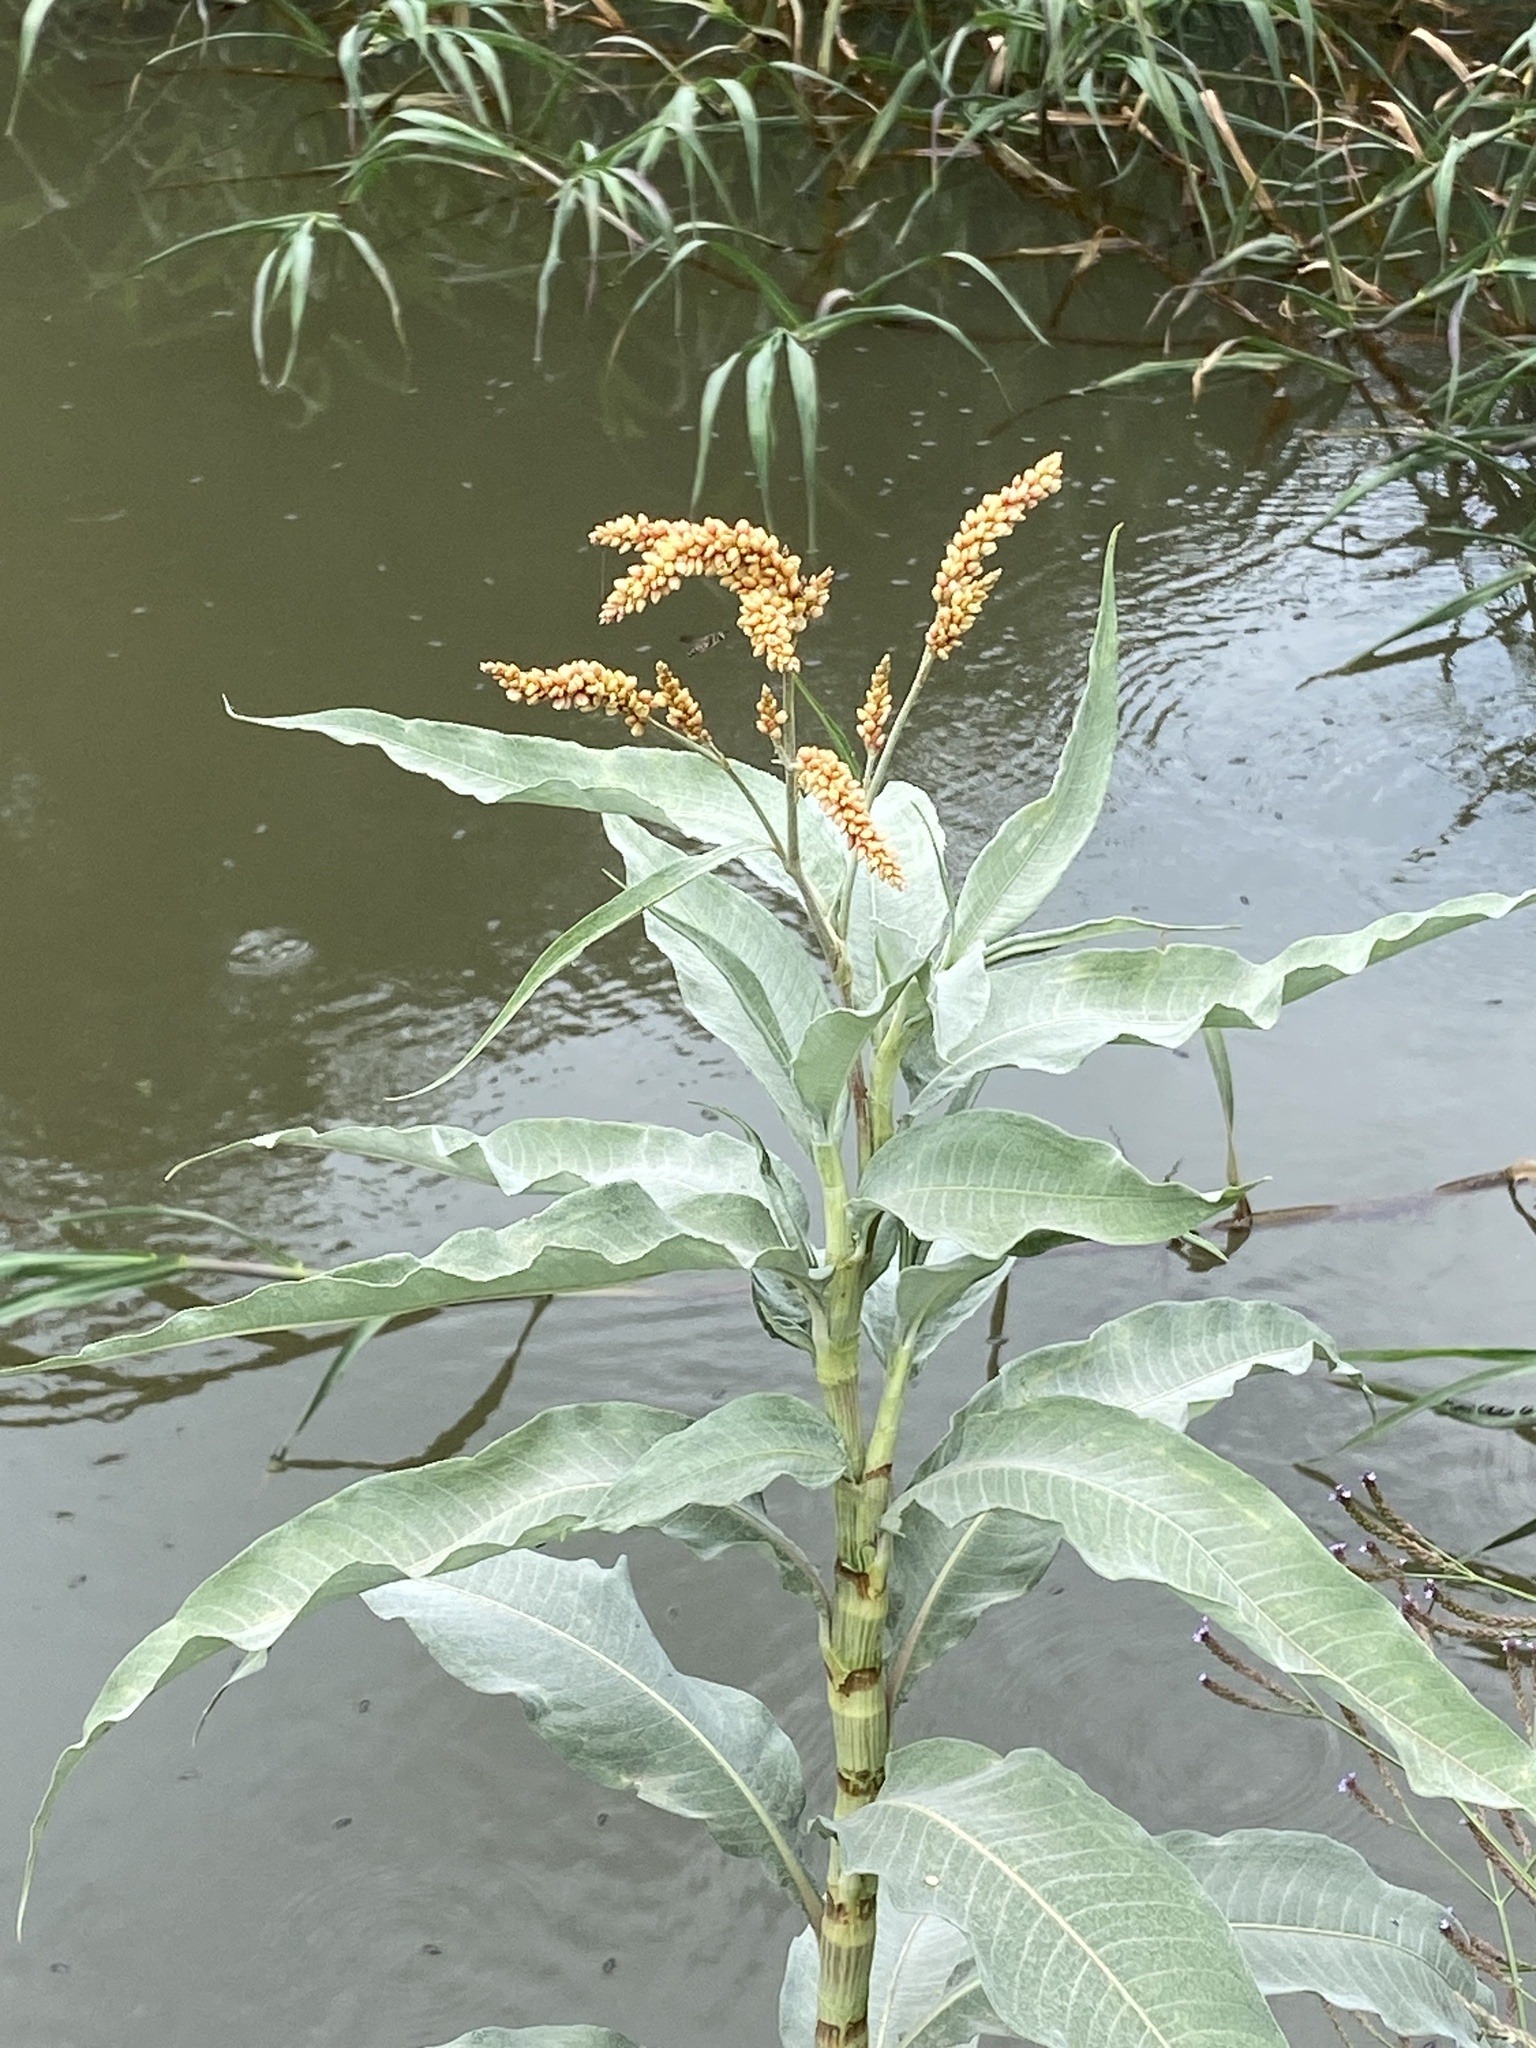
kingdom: Plantae
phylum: Tracheophyta
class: Magnoliopsida
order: Caryophyllales
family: Polygonaceae
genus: Persicaria
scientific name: Persicaria senegalensis
